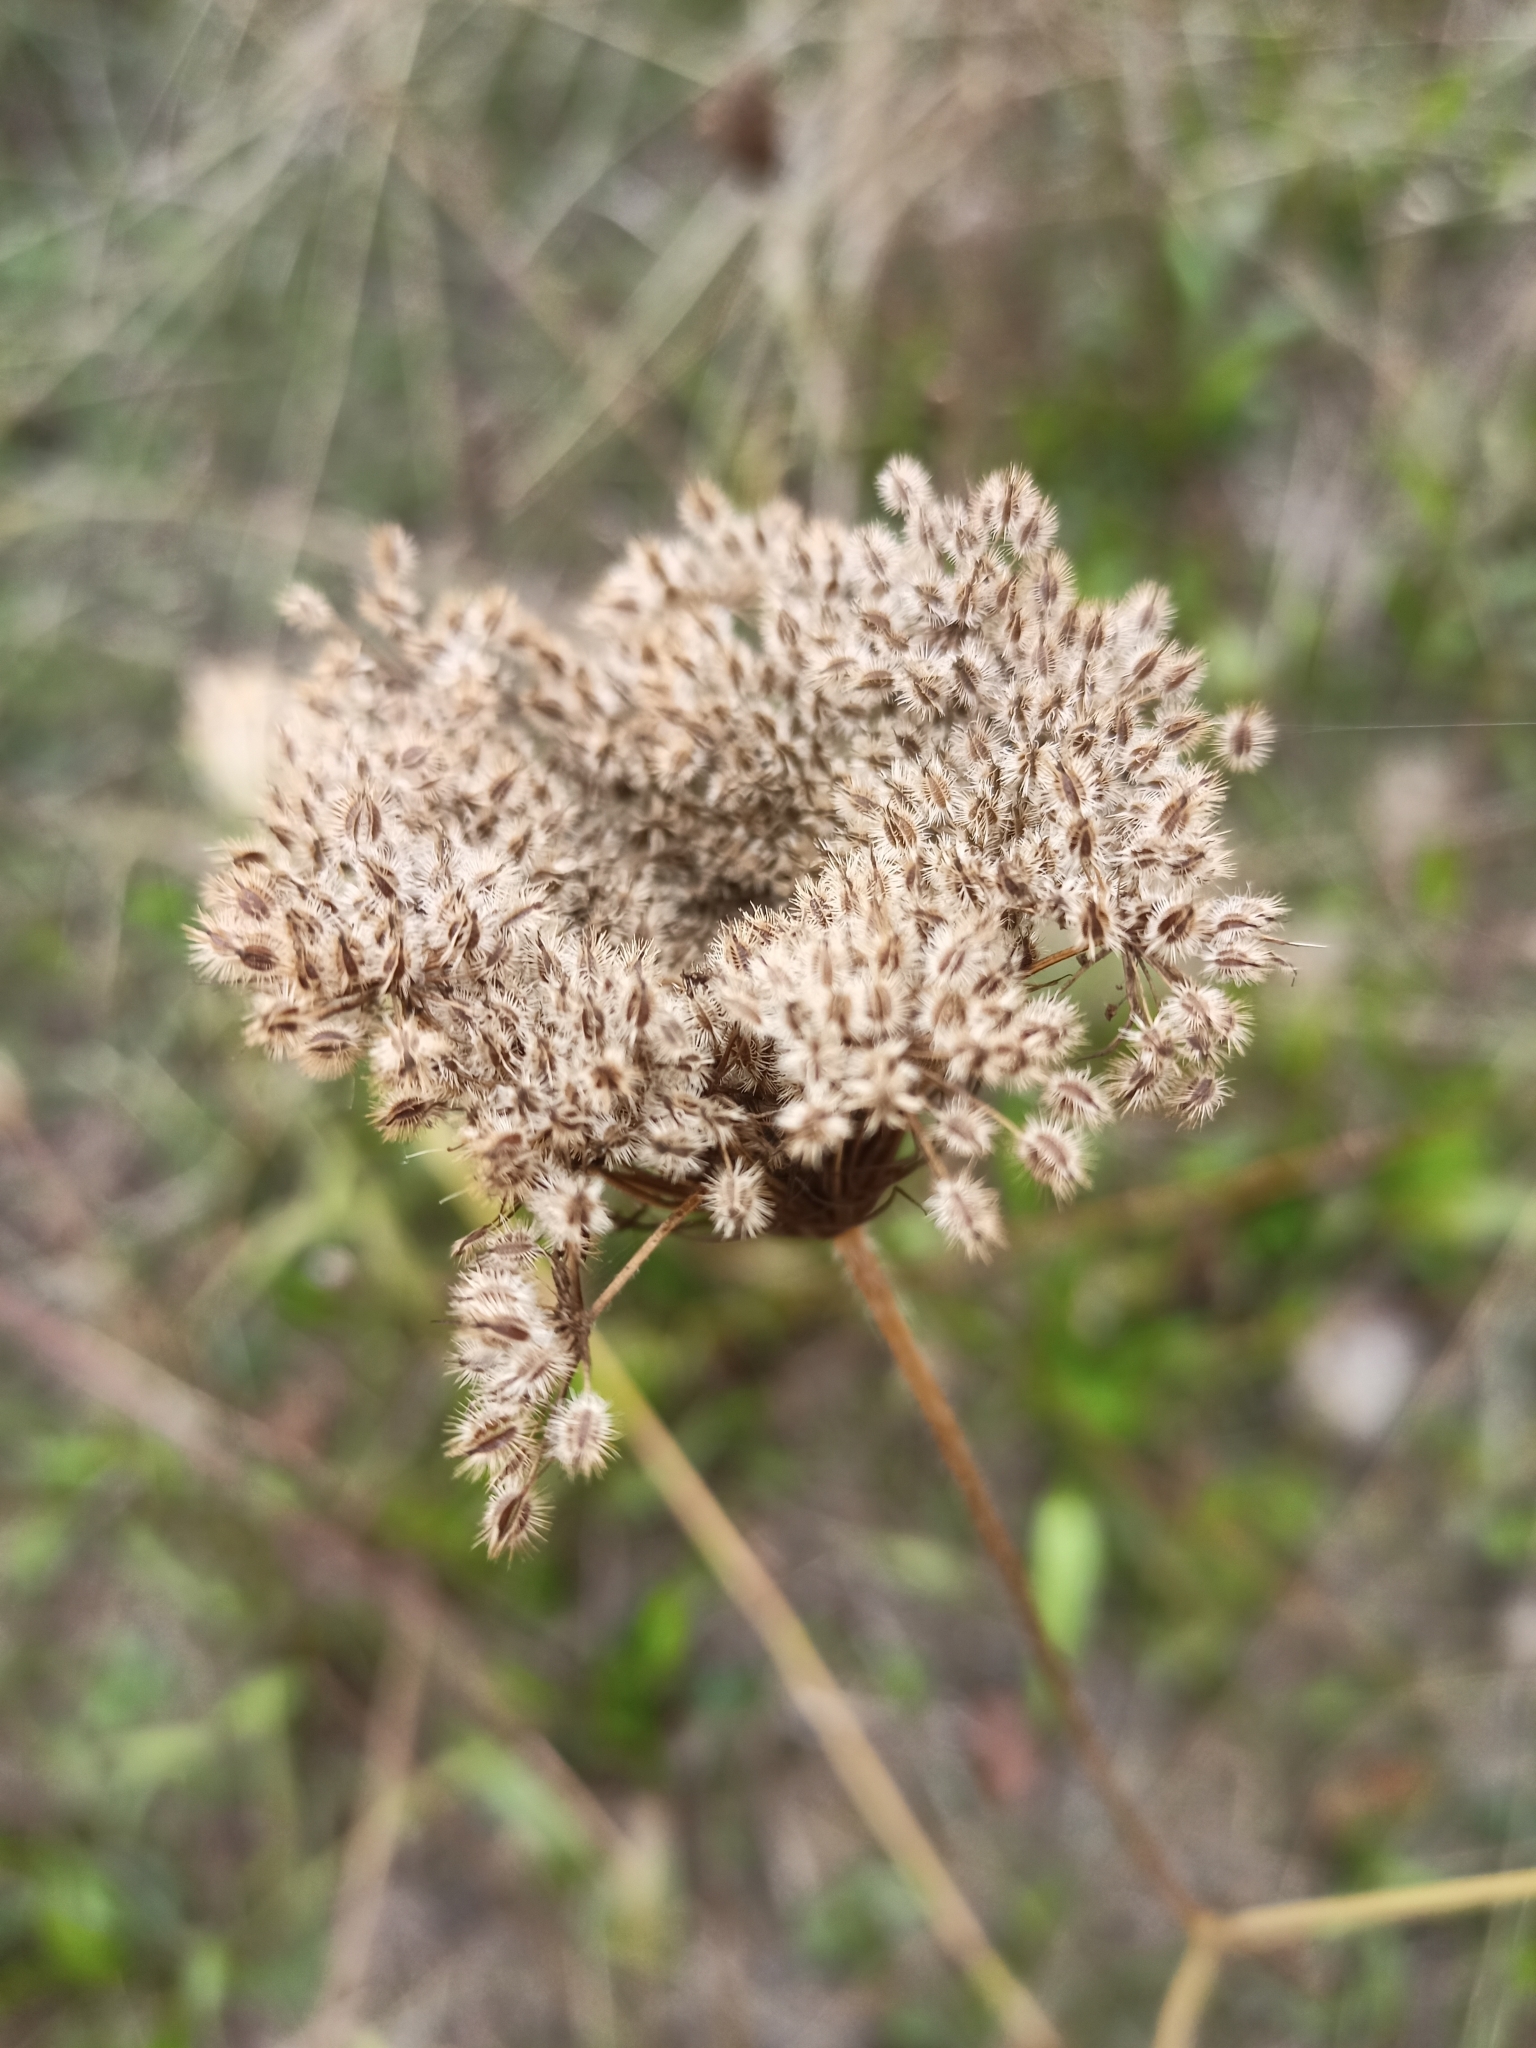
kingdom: Plantae
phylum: Tracheophyta
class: Magnoliopsida
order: Apiales
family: Apiaceae
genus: Daucus
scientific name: Daucus carota
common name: Wild carrot
